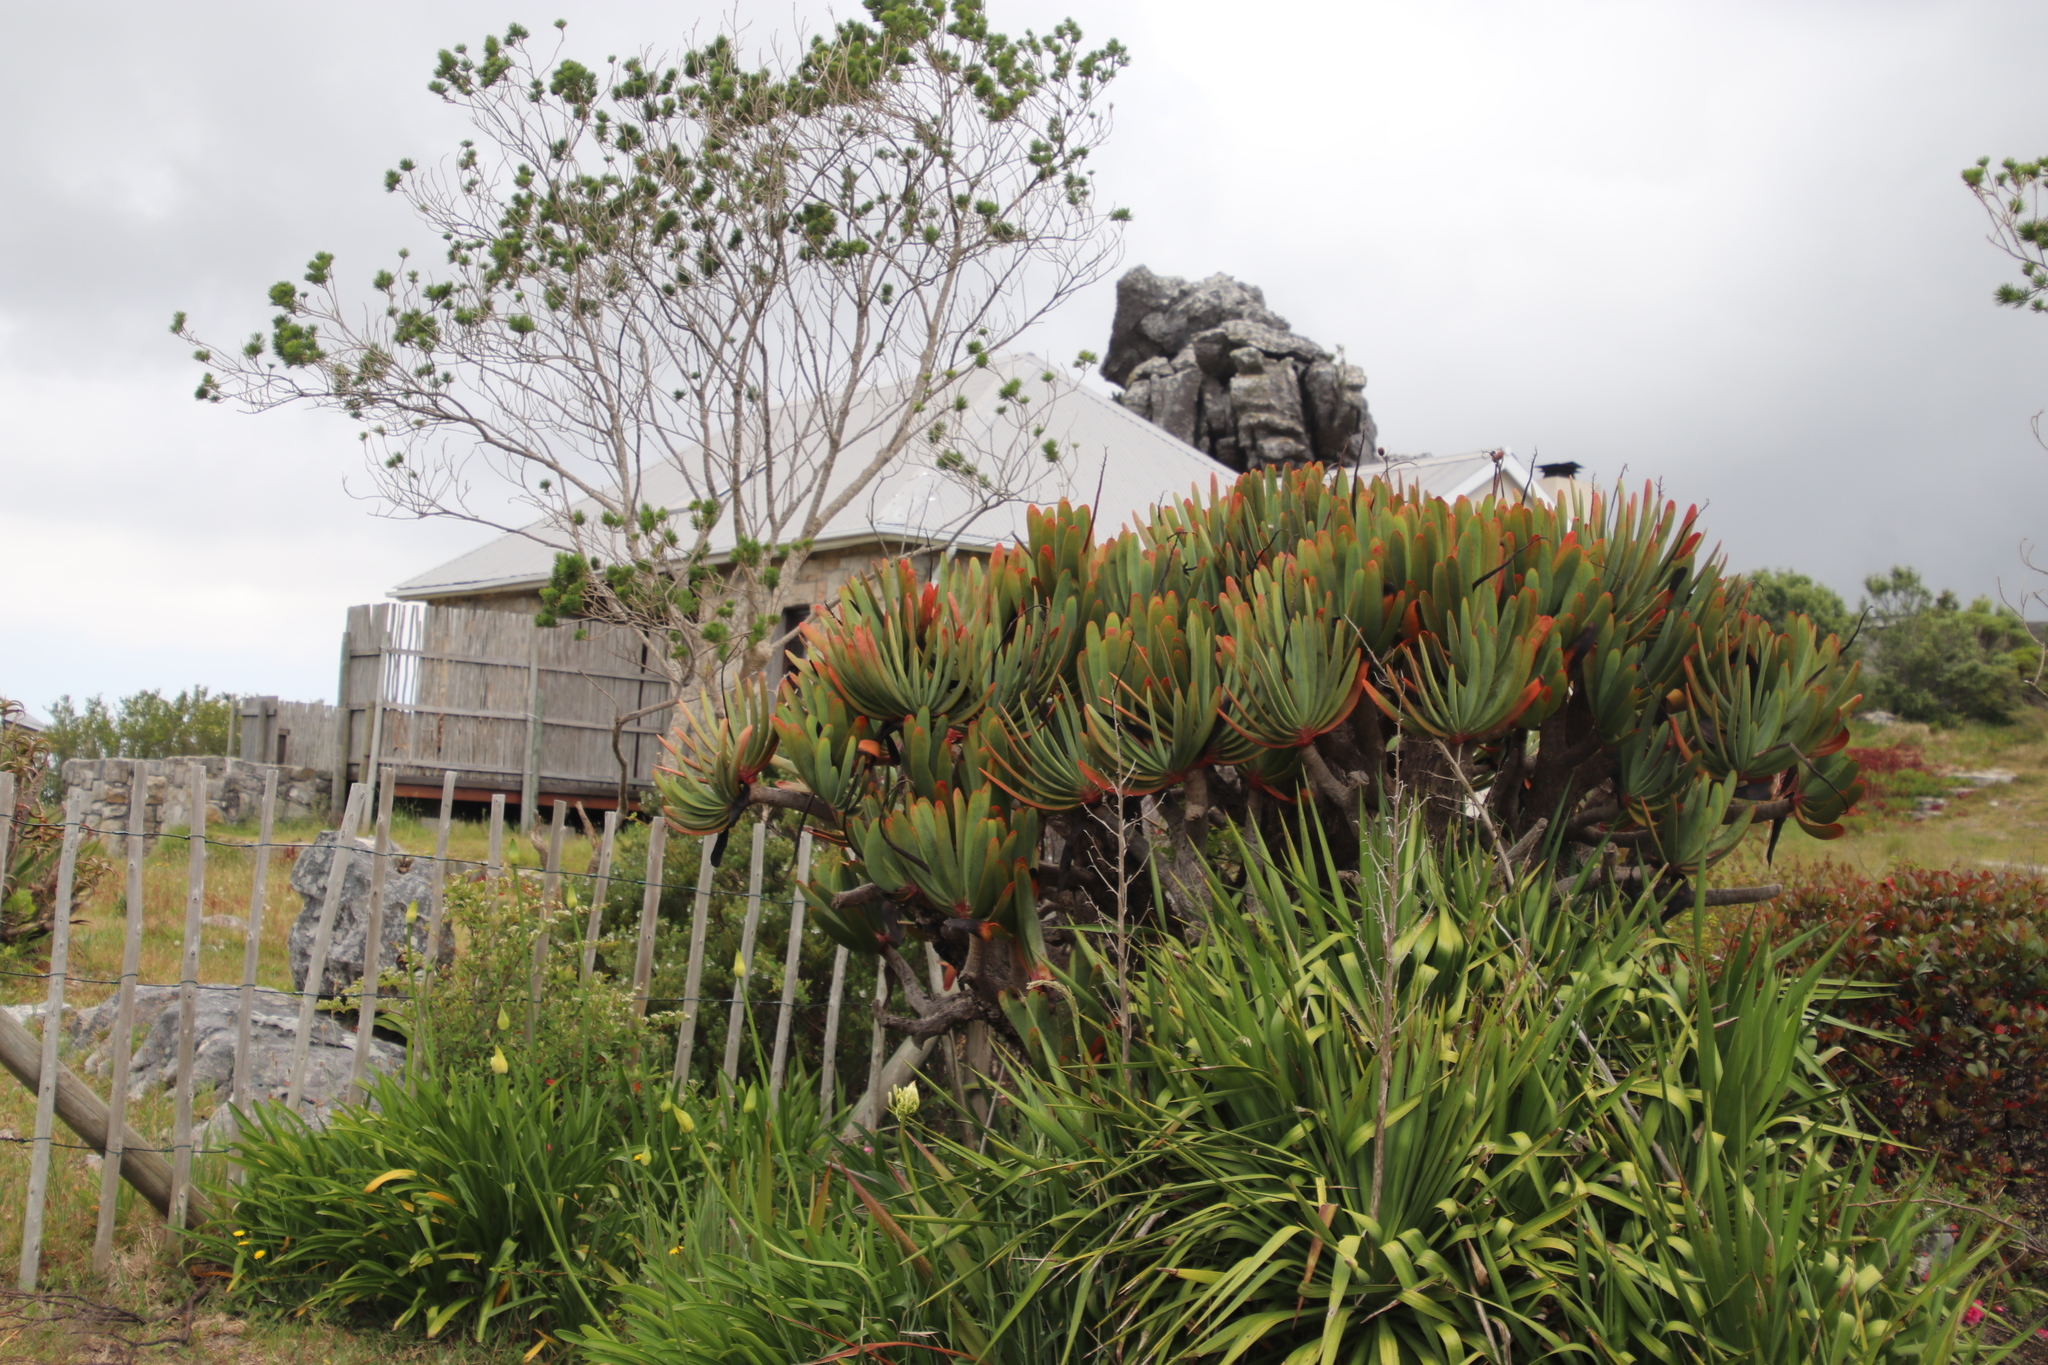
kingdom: Plantae
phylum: Tracheophyta
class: Liliopsida
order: Asparagales
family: Asphodelaceae
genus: Kumara
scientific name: Kumara plicatilis
